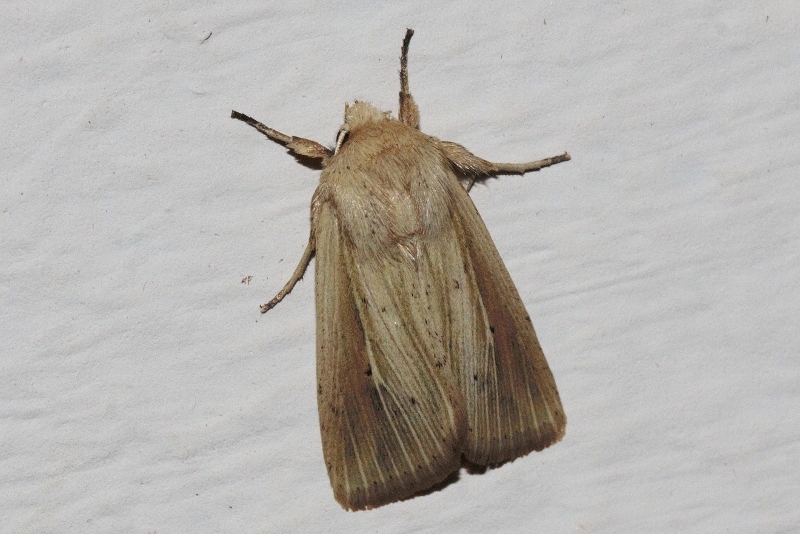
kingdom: Animalia
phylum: Arthropoda
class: Insecta
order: Lepidoptera
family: Noctuidae
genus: Vietteania
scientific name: Vietteania torrentium
